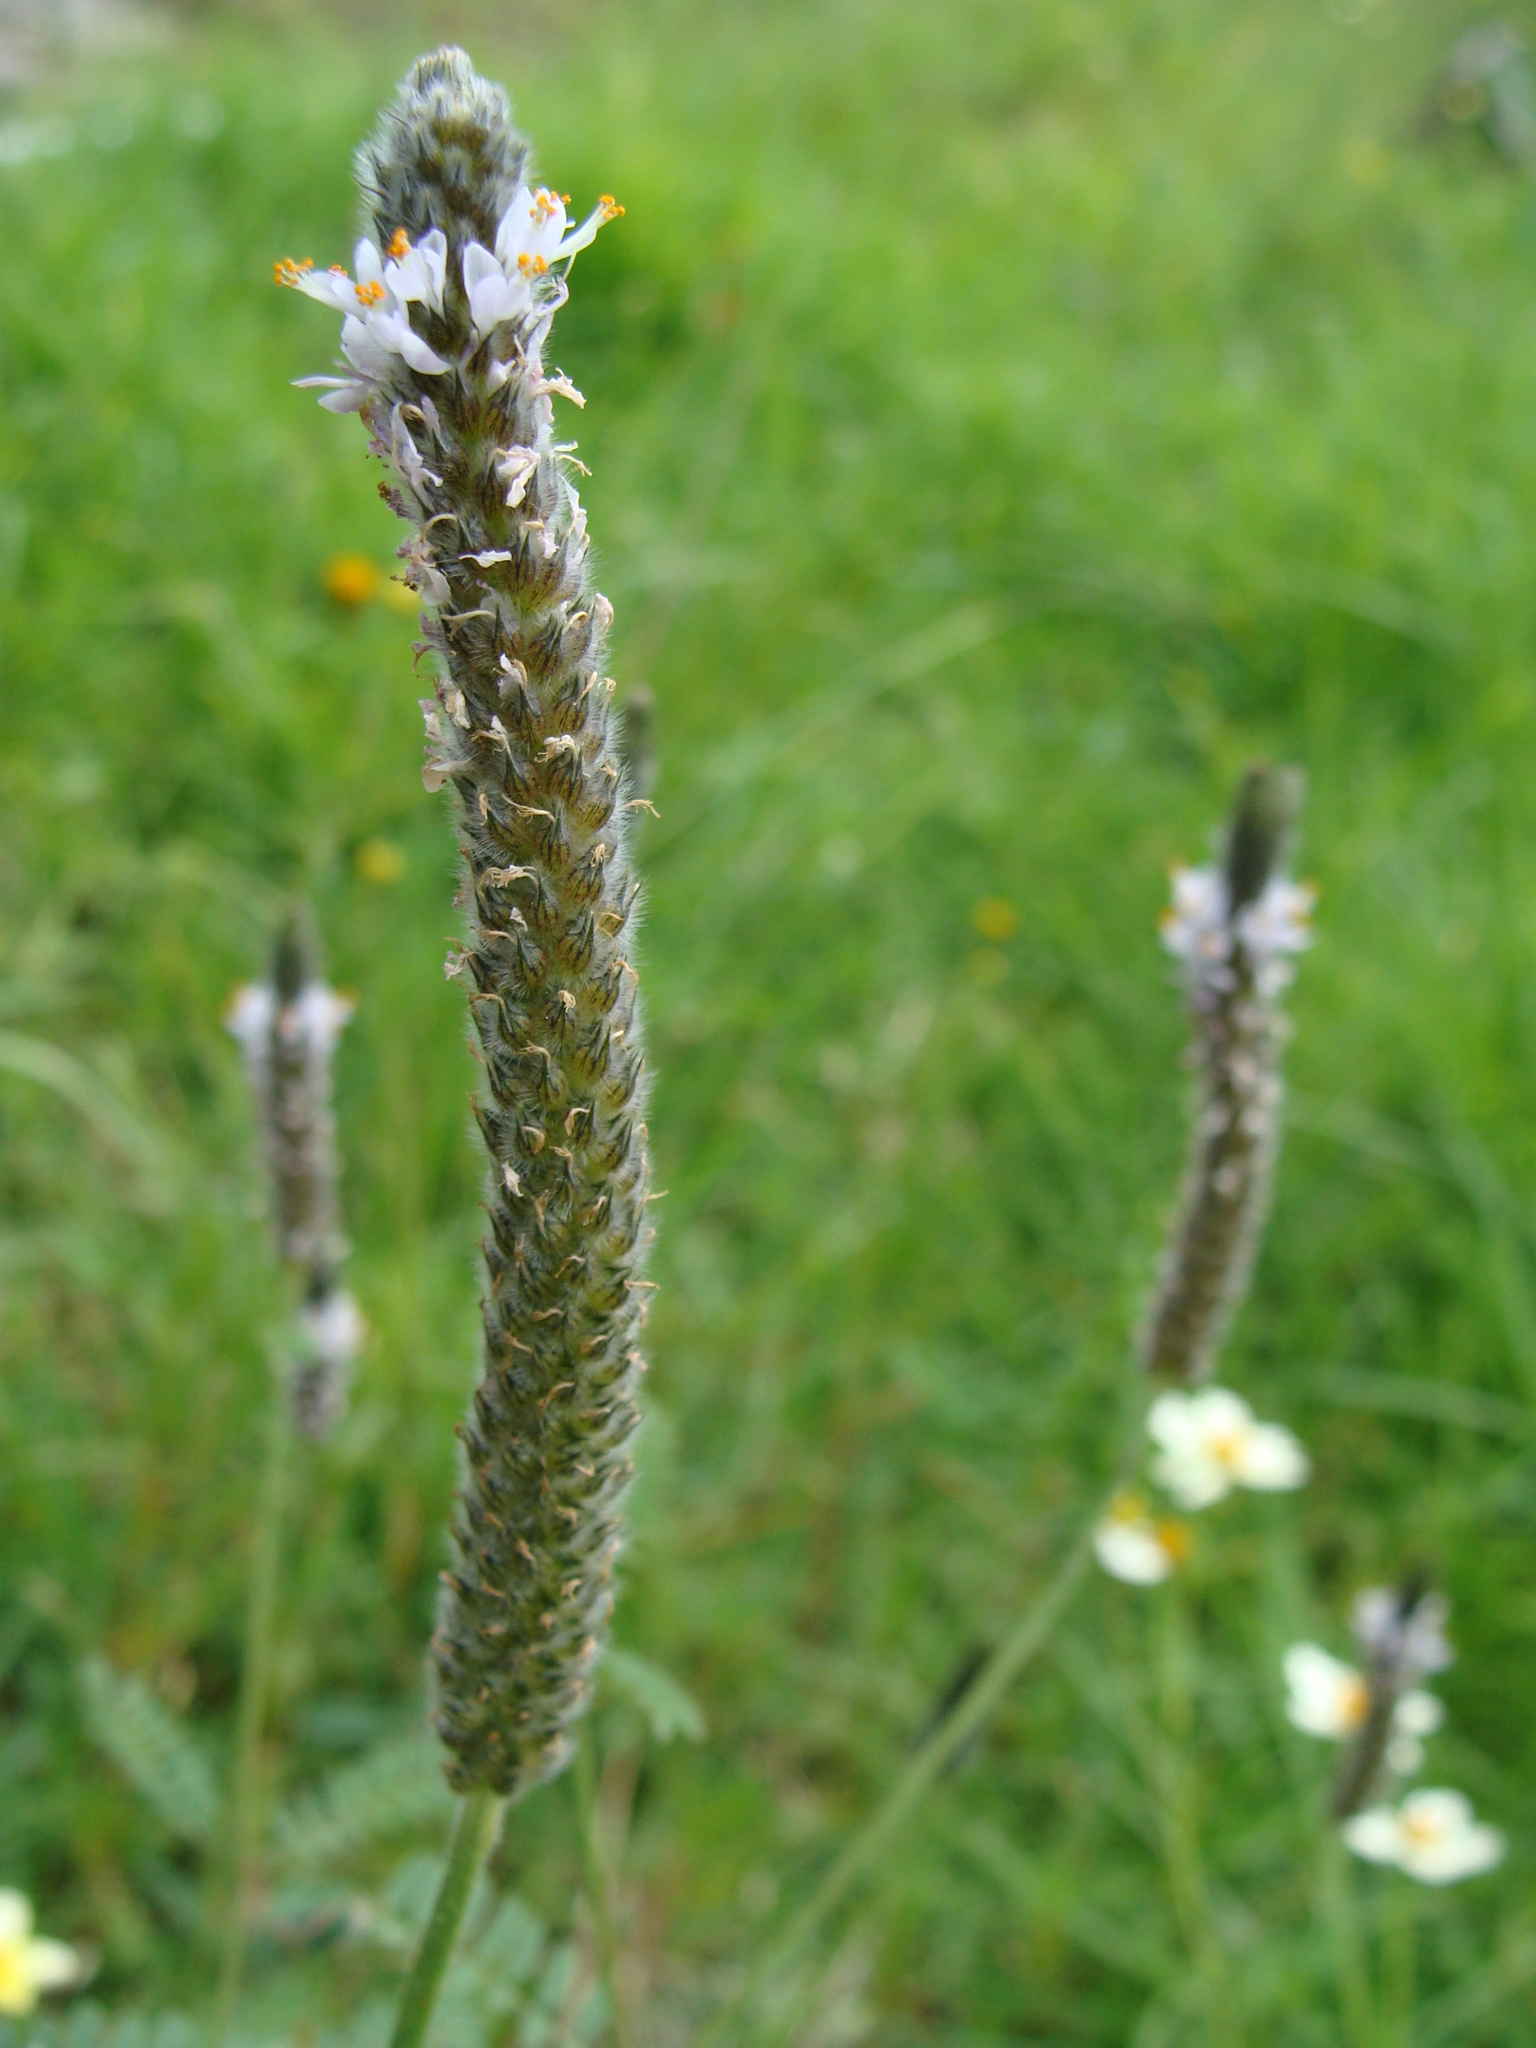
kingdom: Plantae
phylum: Tracheophyta
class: Magnoliopsida
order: Fabales
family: Fabaceae
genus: Dalea
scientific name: Dalea leporina
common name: Foxtail dalea
